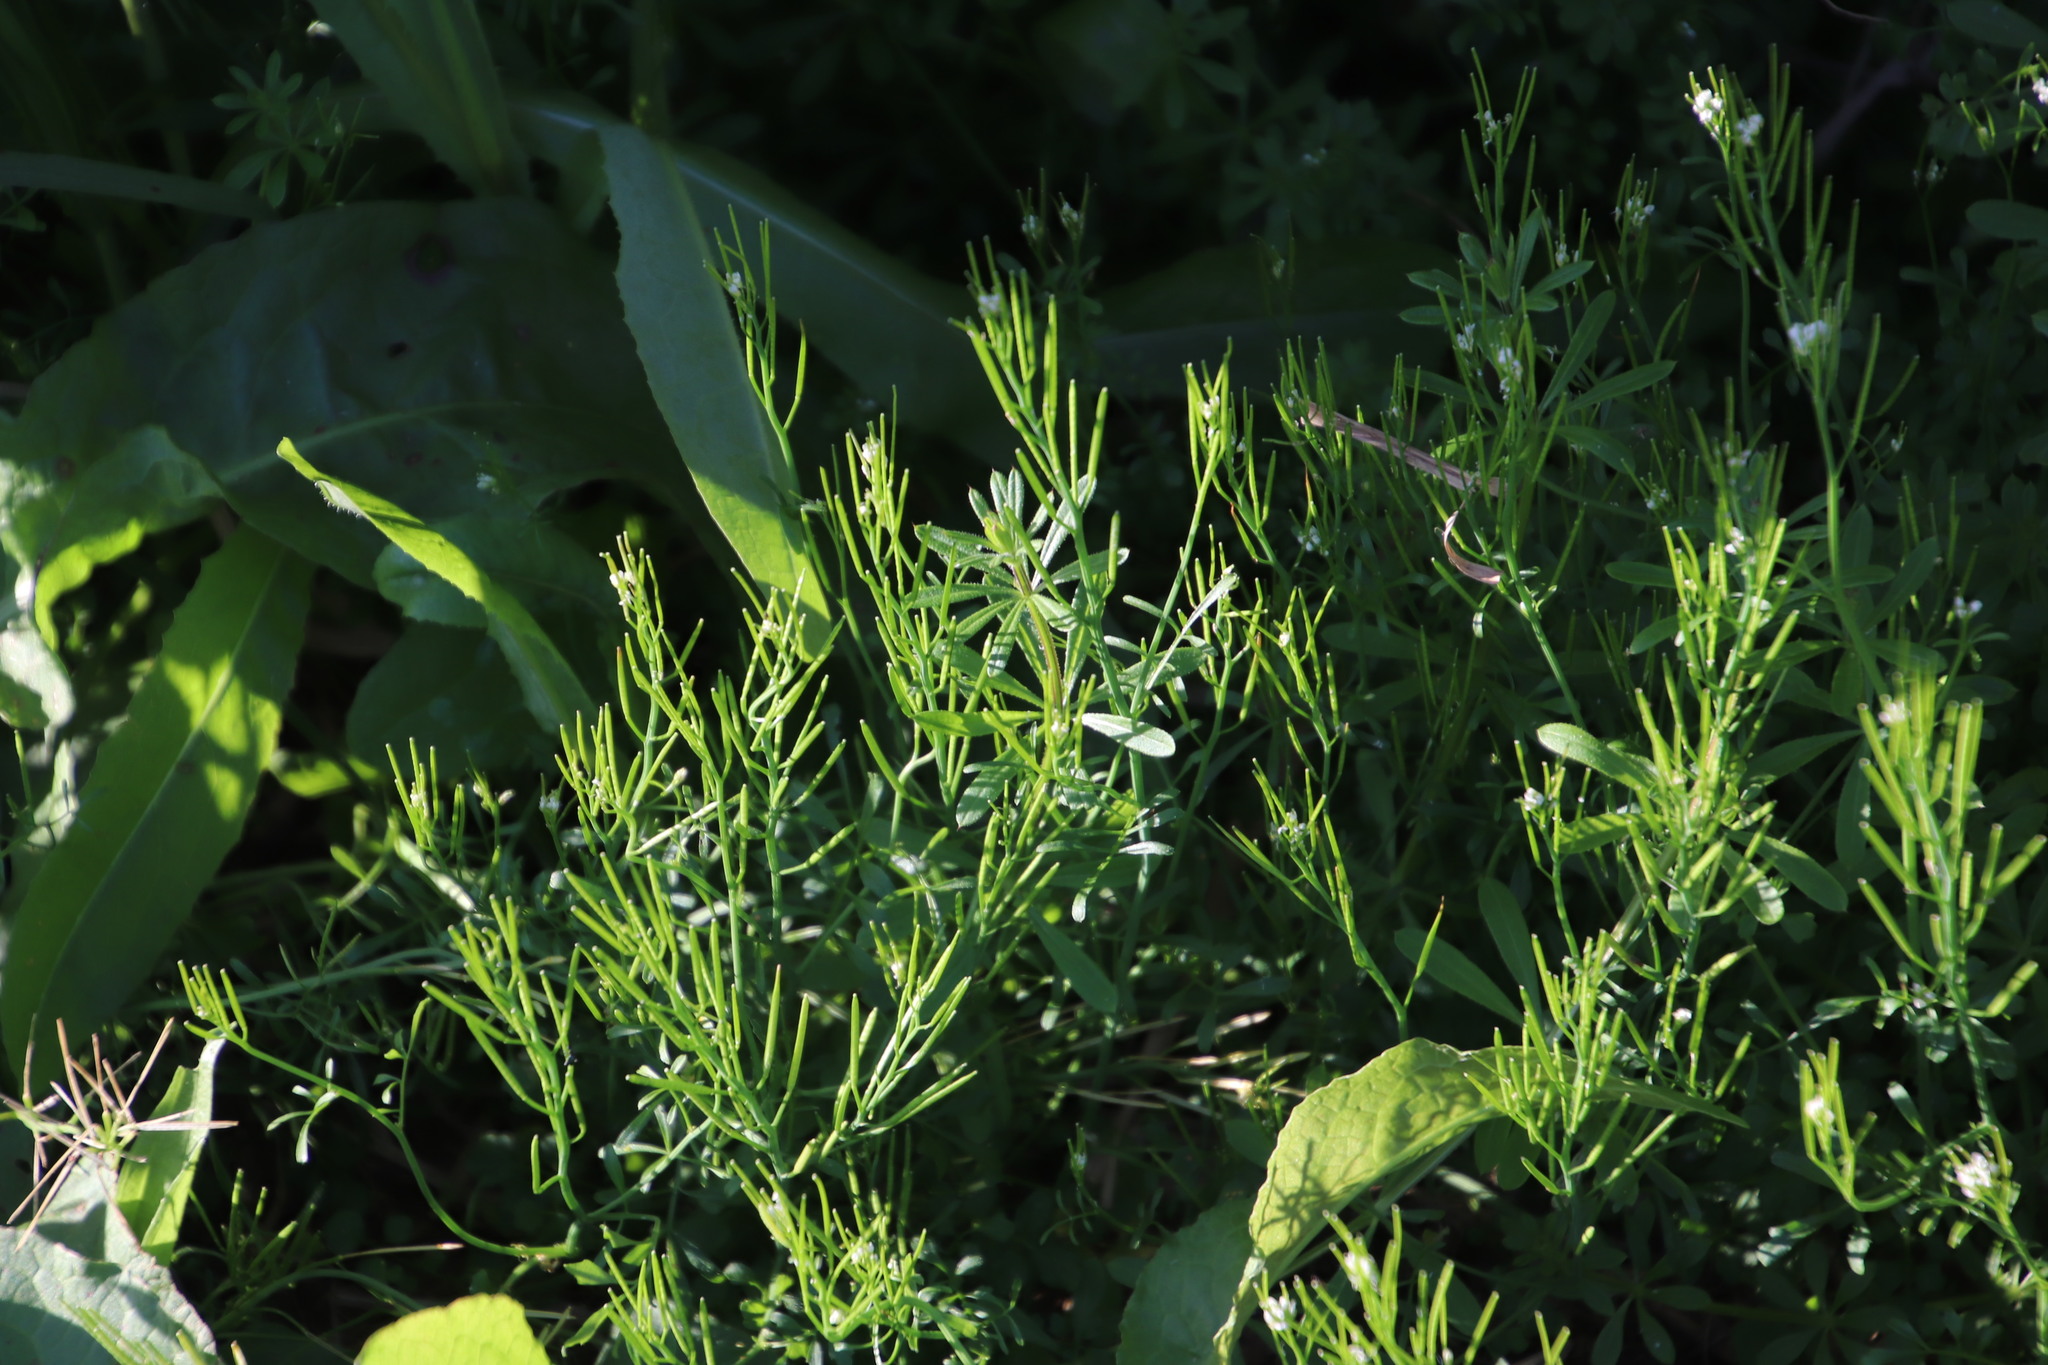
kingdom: Plantae
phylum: Tracheophyta
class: Magnoliopsida
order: Brassicales
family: Brassicaceae
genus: Cardamine
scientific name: Cardamine hirsuta
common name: Hairy bittercress
